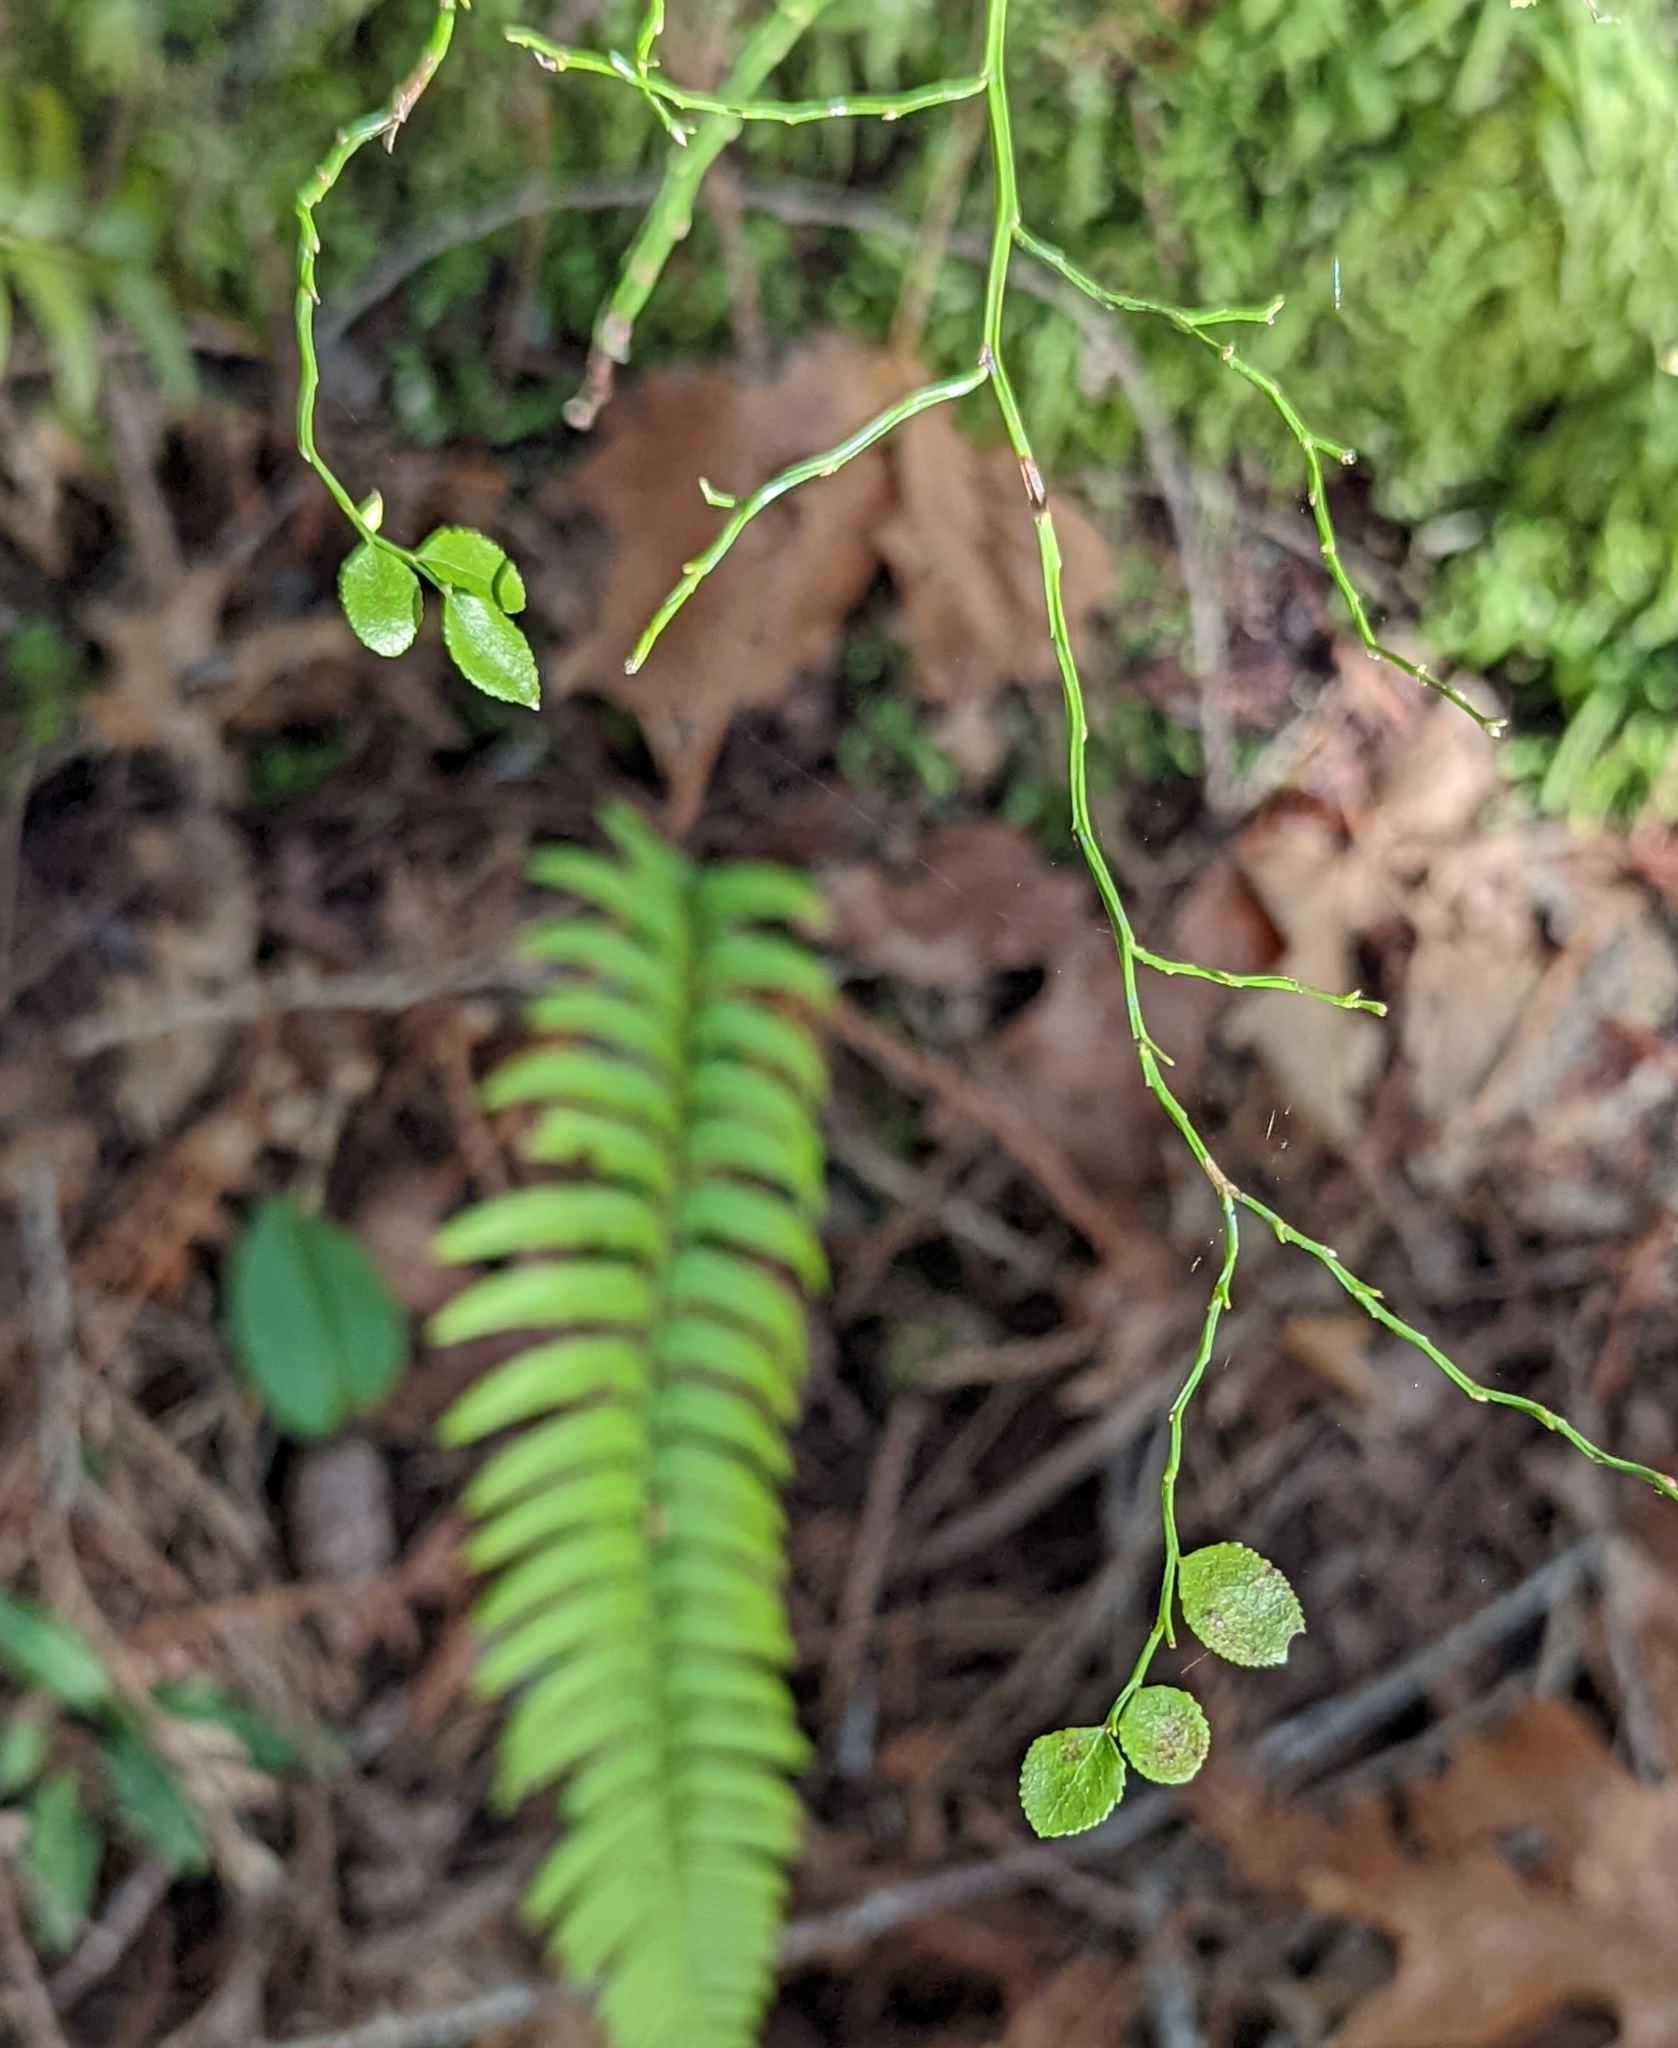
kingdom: Plantae
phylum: Tracheophyta
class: Magnoliopsida
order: Ericales
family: Ericaceae
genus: Vaccinium
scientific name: Vaccinium parvifolium
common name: Red-huckleberry
